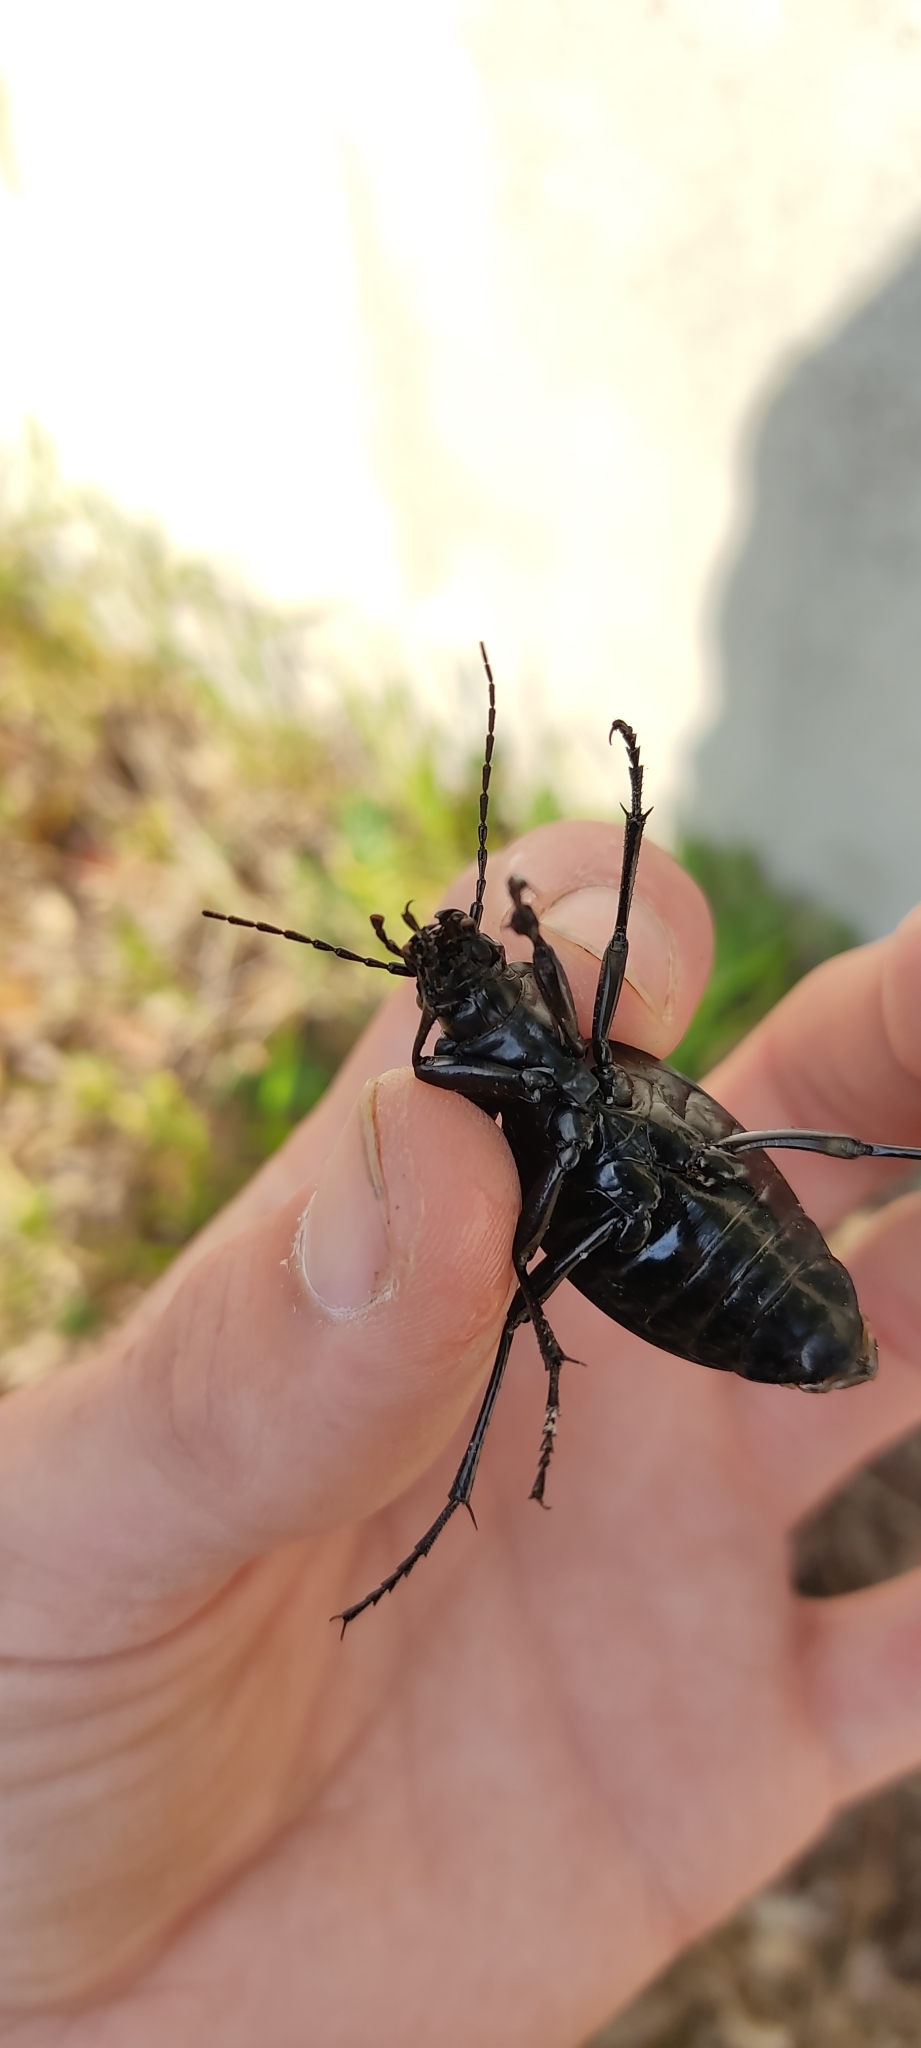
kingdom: Animalia
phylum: Arthropoda
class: Insecta
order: Coleoptera
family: Carabidae
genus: Carabus
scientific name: Carabus coriaceus
